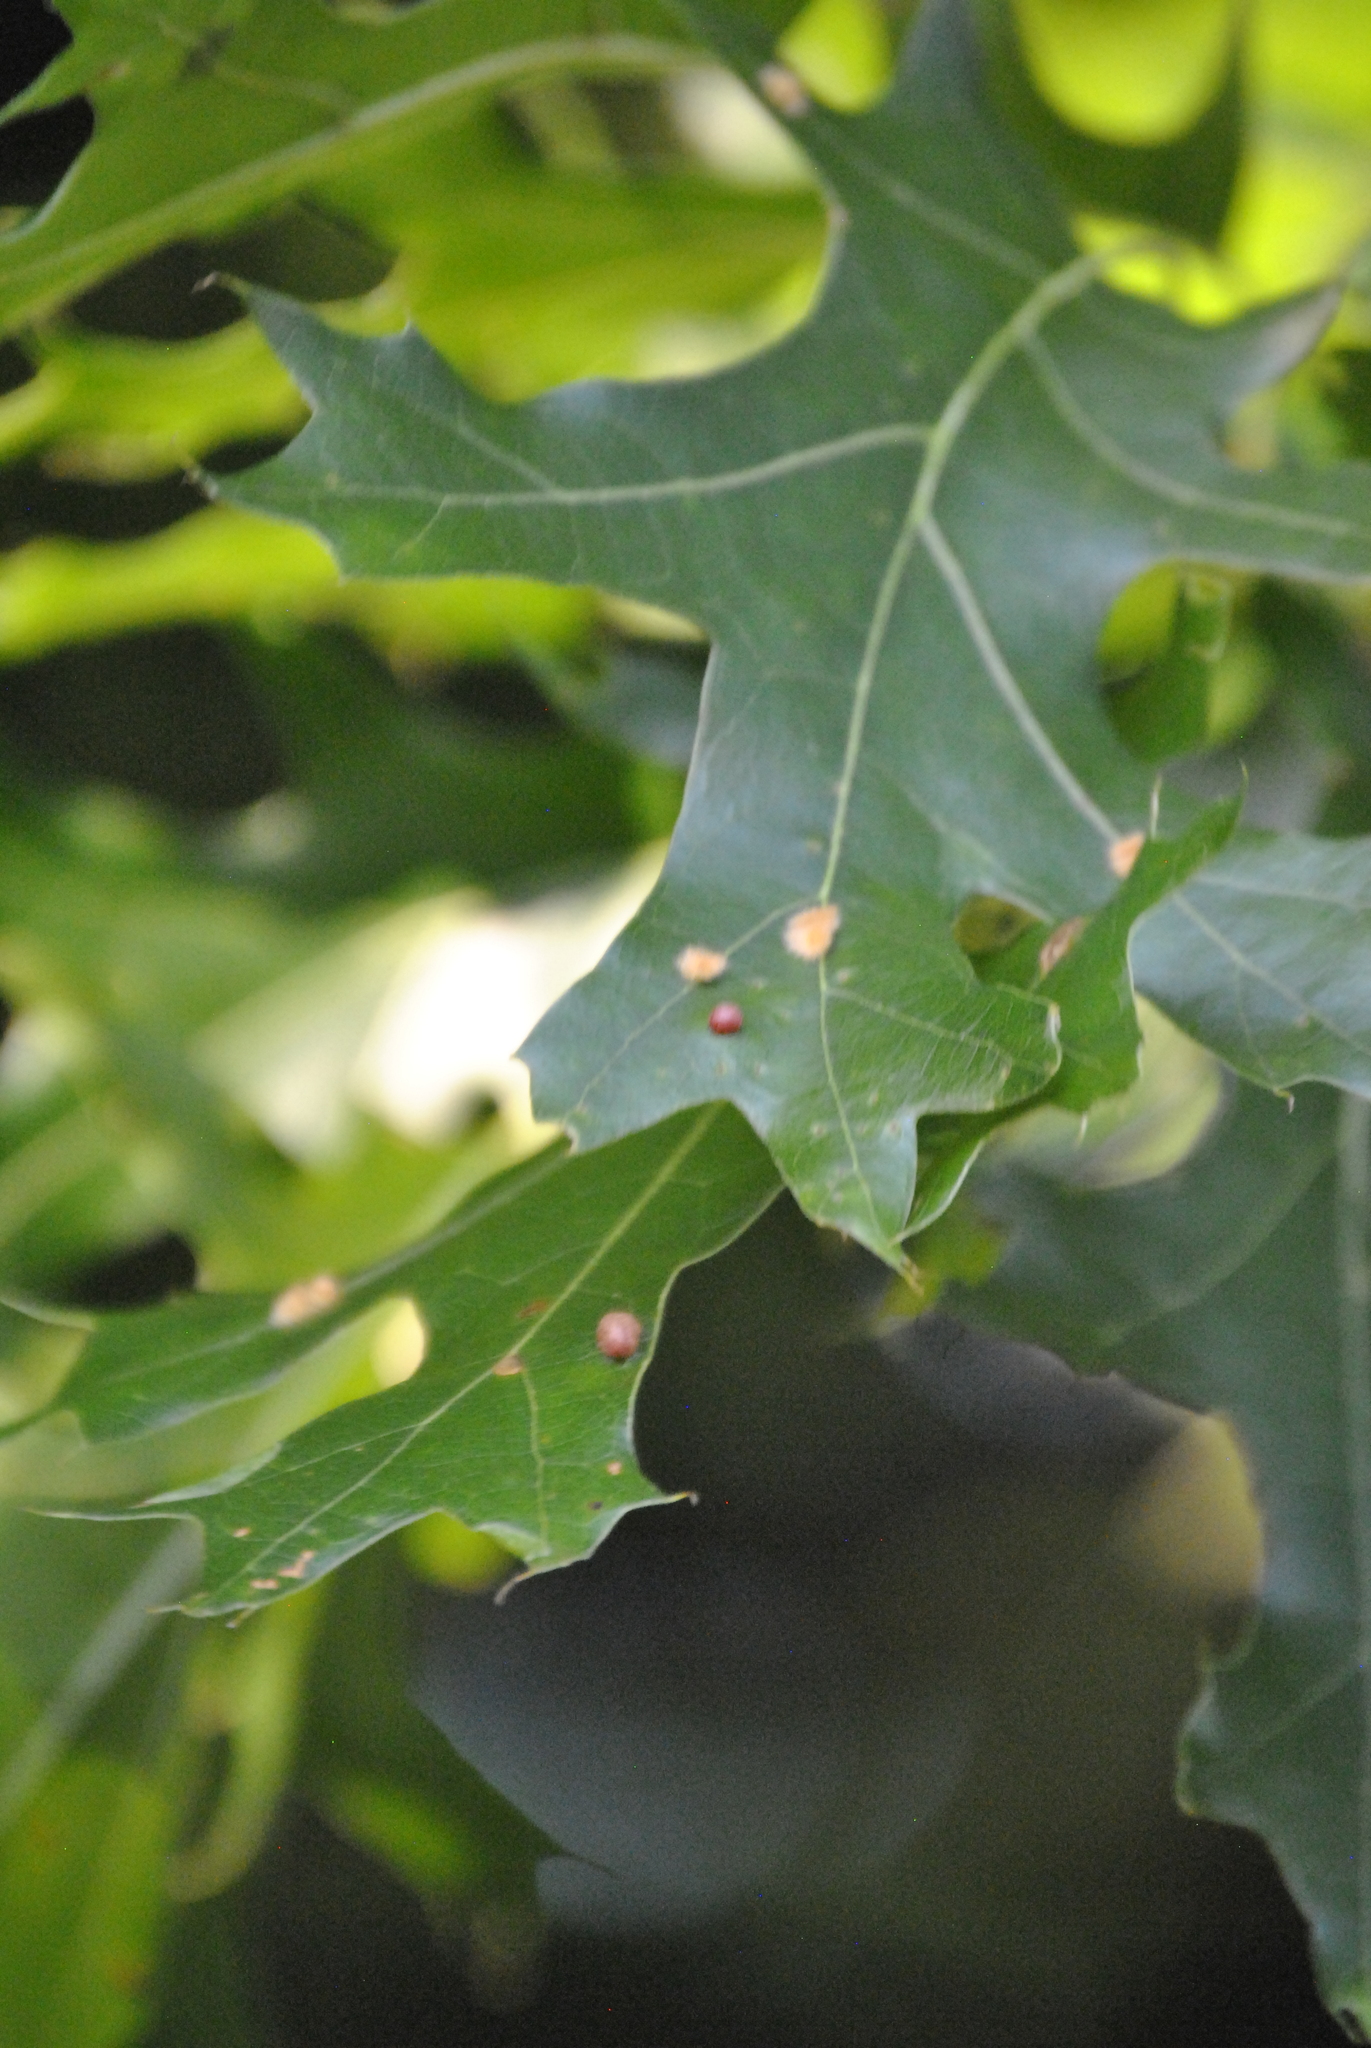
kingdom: Animalia
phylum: Arthropoda
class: Insecta
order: Hymenoptera
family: Cynipidae
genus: Amphibolips
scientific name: Amphibolips
